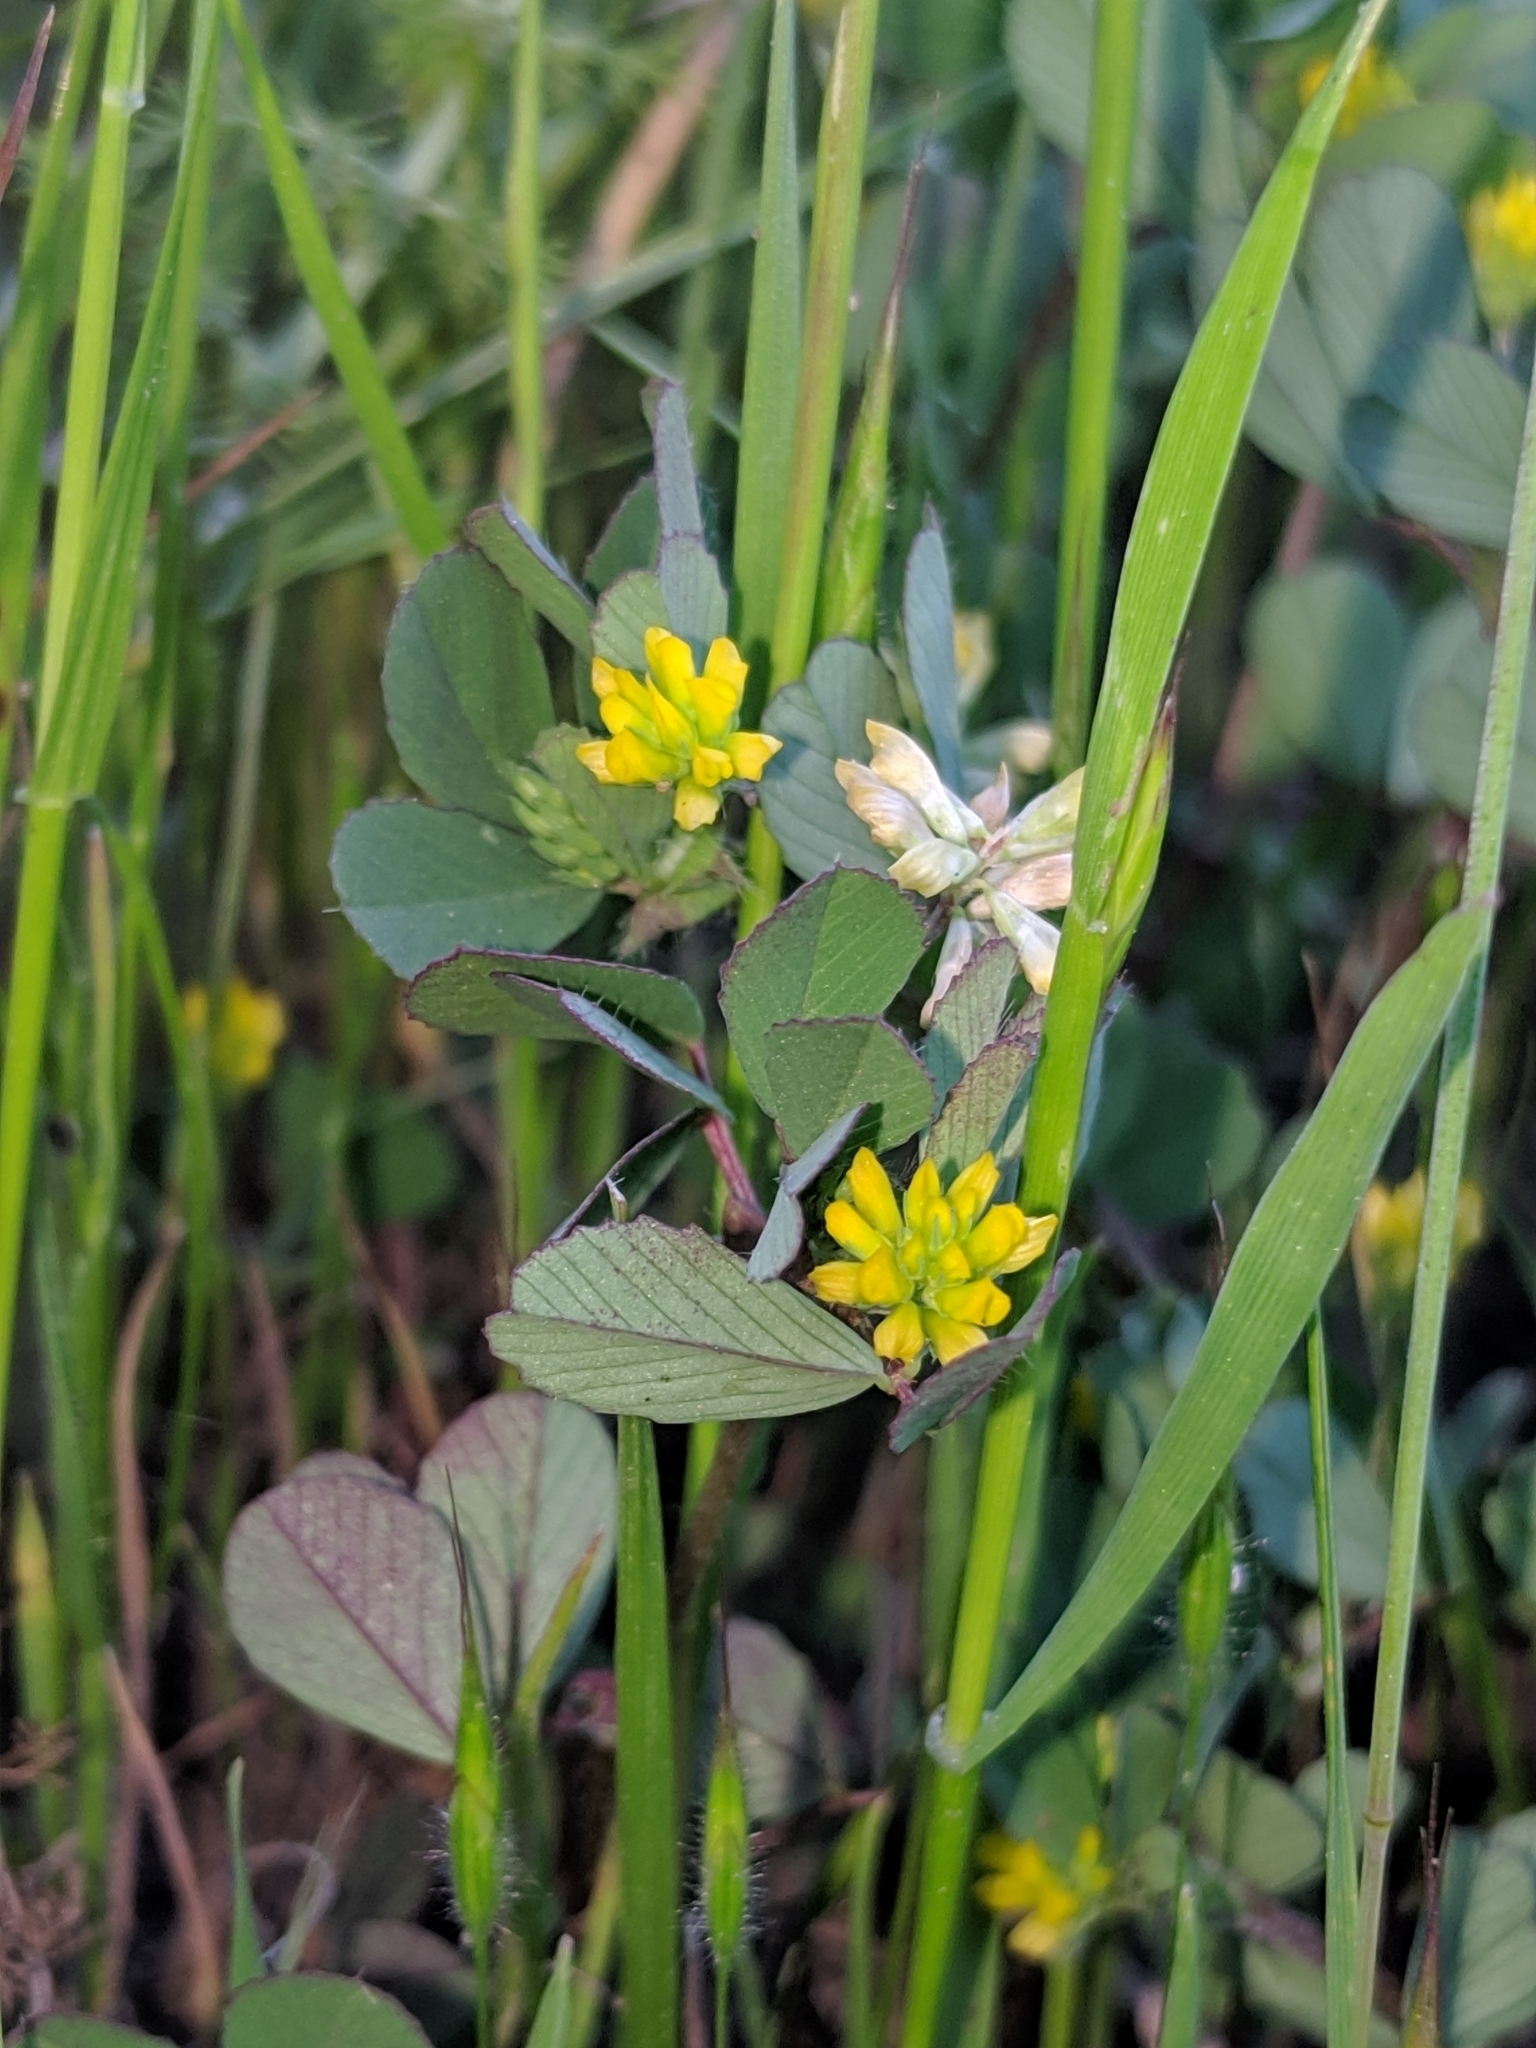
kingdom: Plantae
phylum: Tracheophyta
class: Magnoliopsida
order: Fabales
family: Fabaceae
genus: Trifolium
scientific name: Trifolium dubium
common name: Suckling clover
